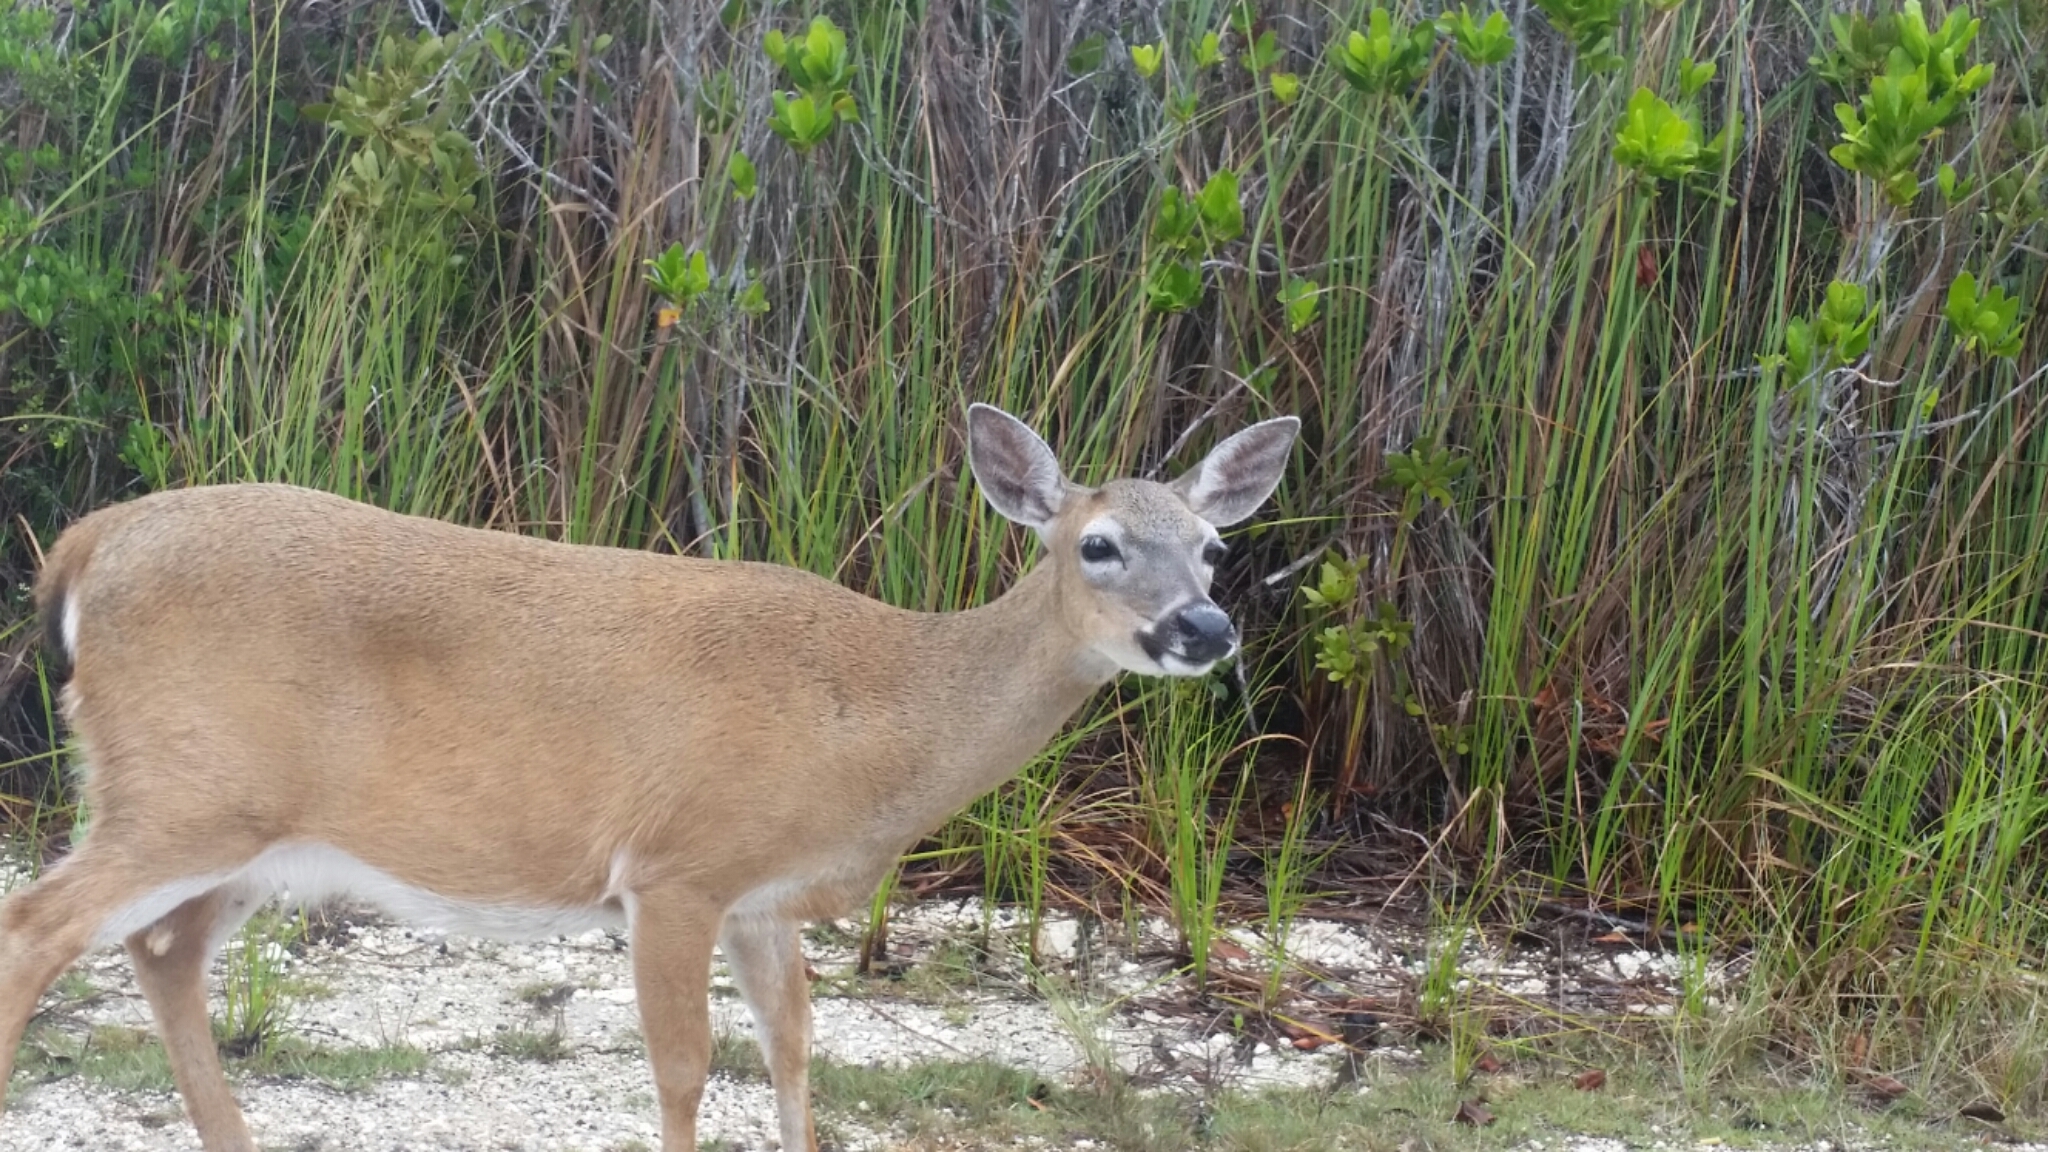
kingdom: Animalia
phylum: Chordata
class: Mammalia
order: Artiodactyla
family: Cervidae
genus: Odocoileus
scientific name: Odocoileus virginianus
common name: White-tailed deer
